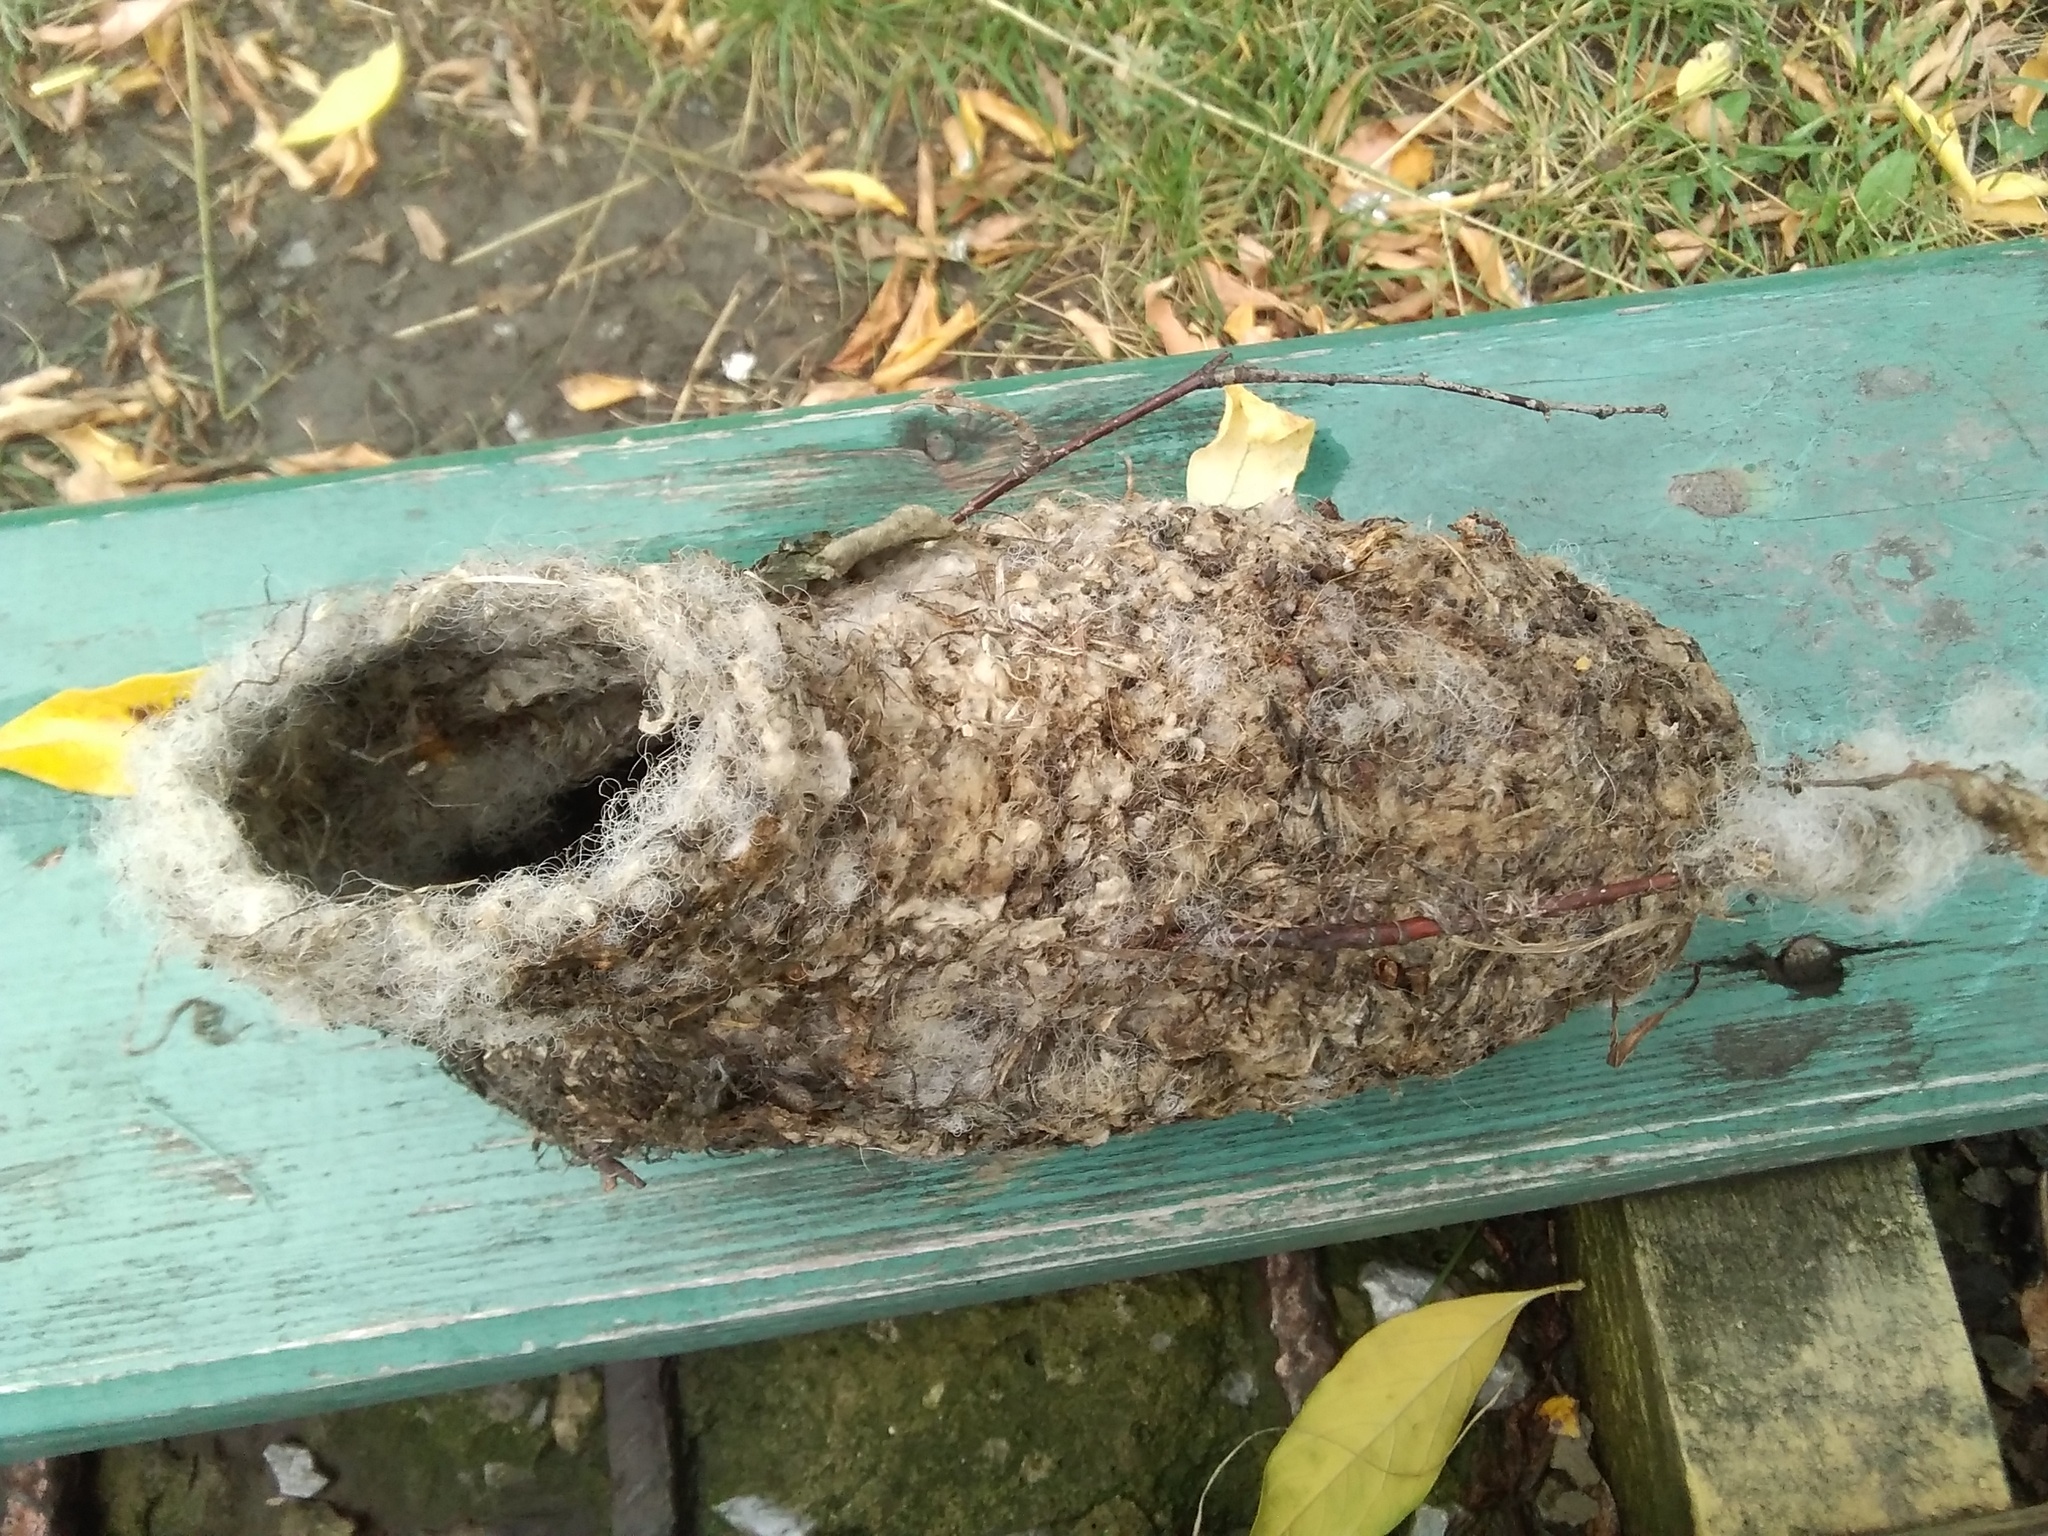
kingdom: Animalia
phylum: Chordata
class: Aves
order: Passeriformes
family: Remizidae
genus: Remiz
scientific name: Remiz pendulinus
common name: Eurasian penduline tit
